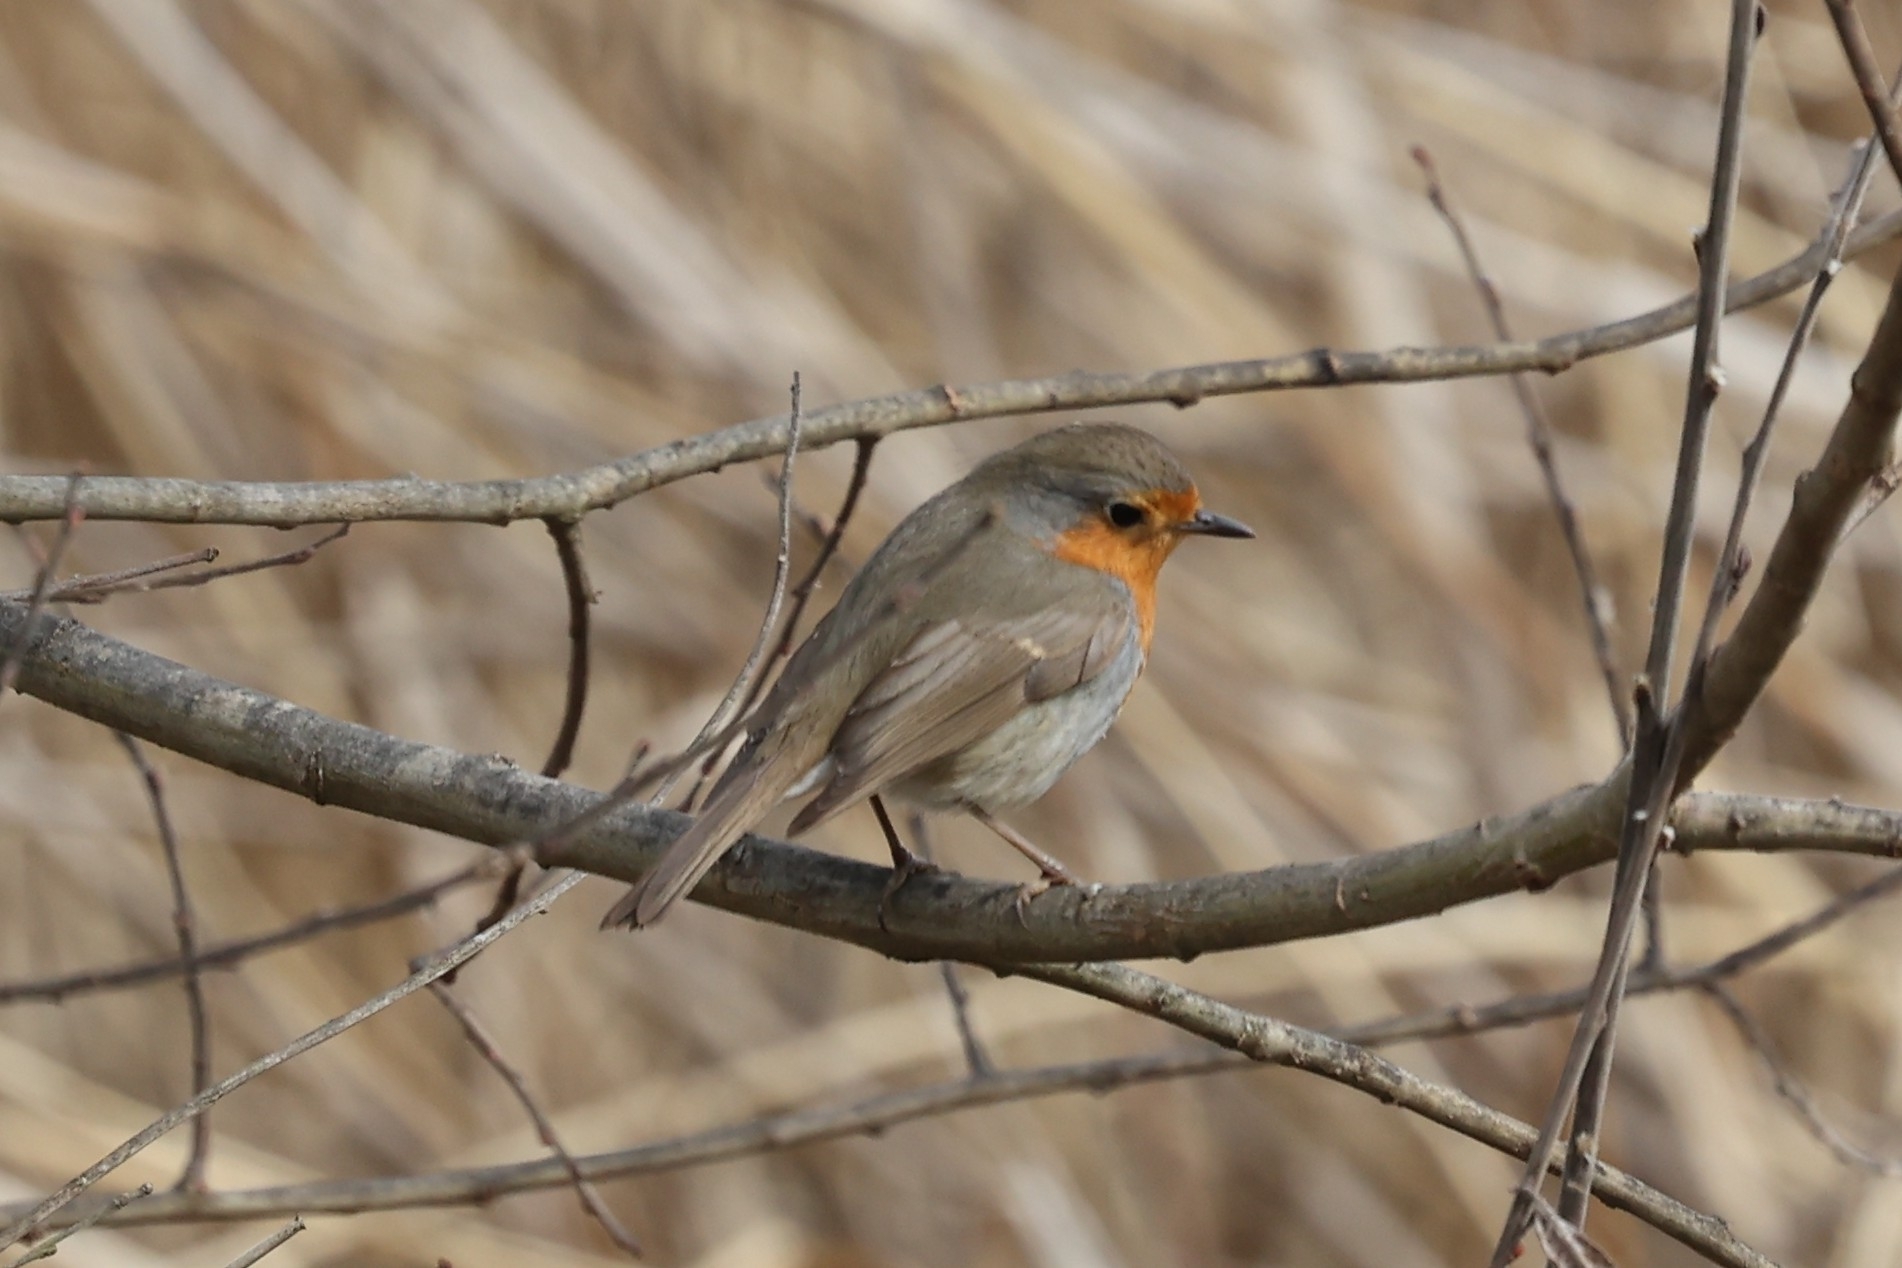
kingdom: Animalia
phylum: Chordata
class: Aves
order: Passeriformes
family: Muscicapidae
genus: Erithacus
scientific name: Erithacus rubecula
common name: European robin
